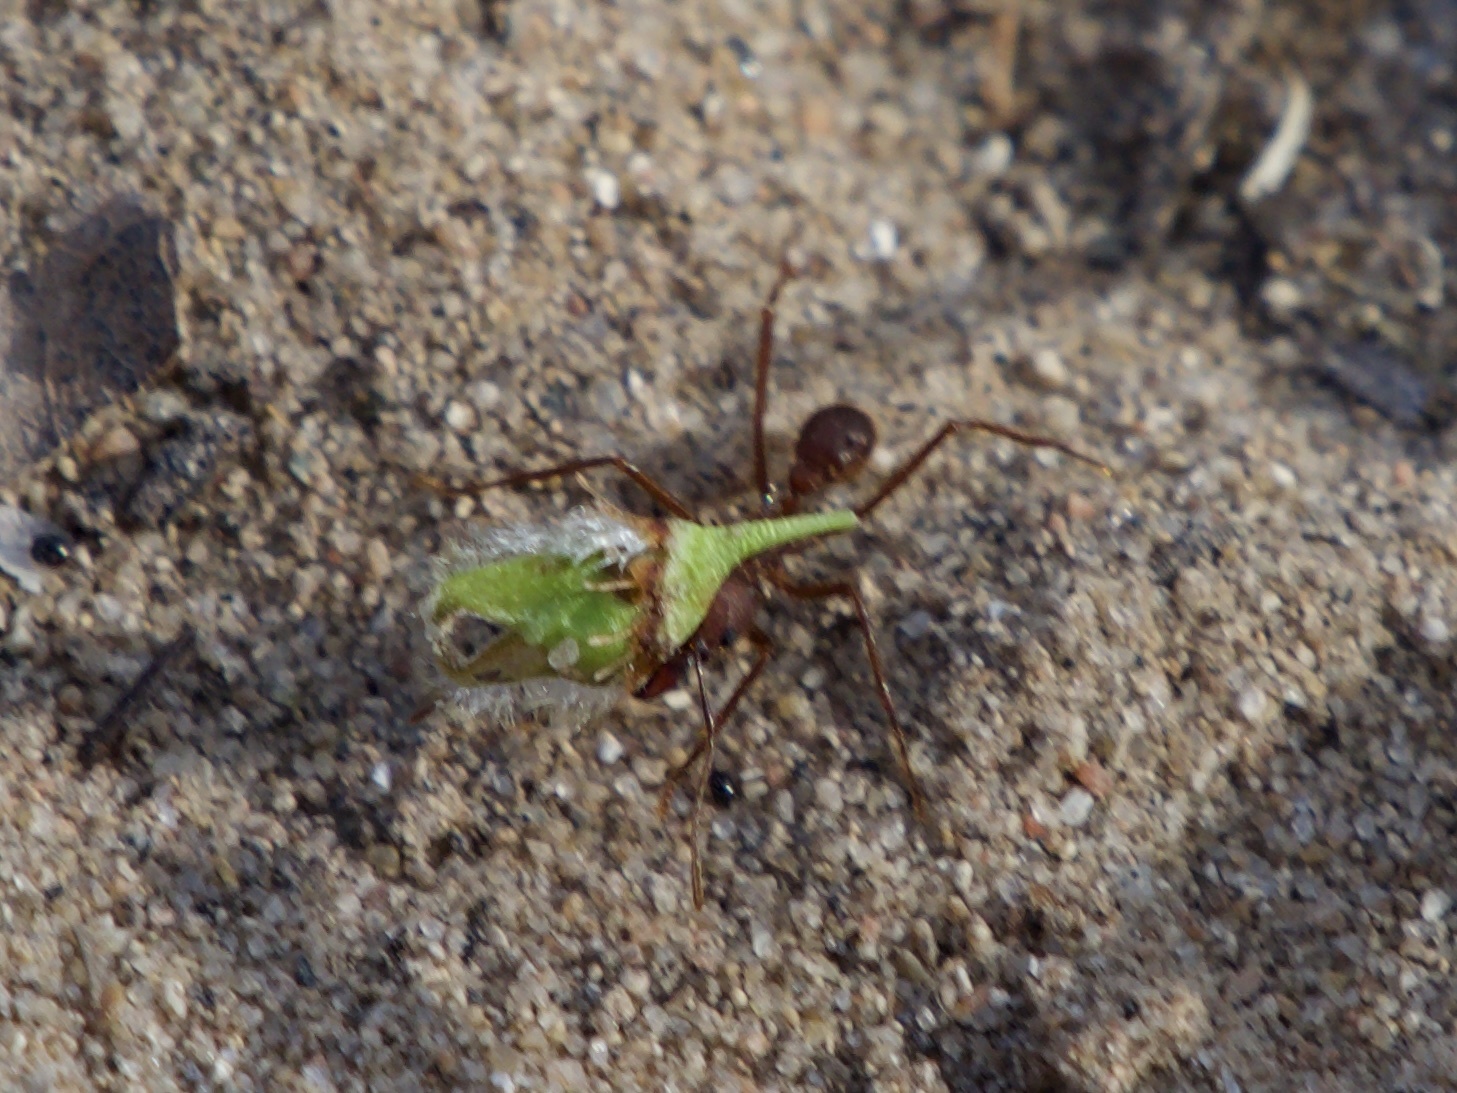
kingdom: Animalia
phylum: Arthropoda
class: Insecta
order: Hymenoptera
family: Formicidae
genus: Atta
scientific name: Atta texana
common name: Texas leafcutting ant
